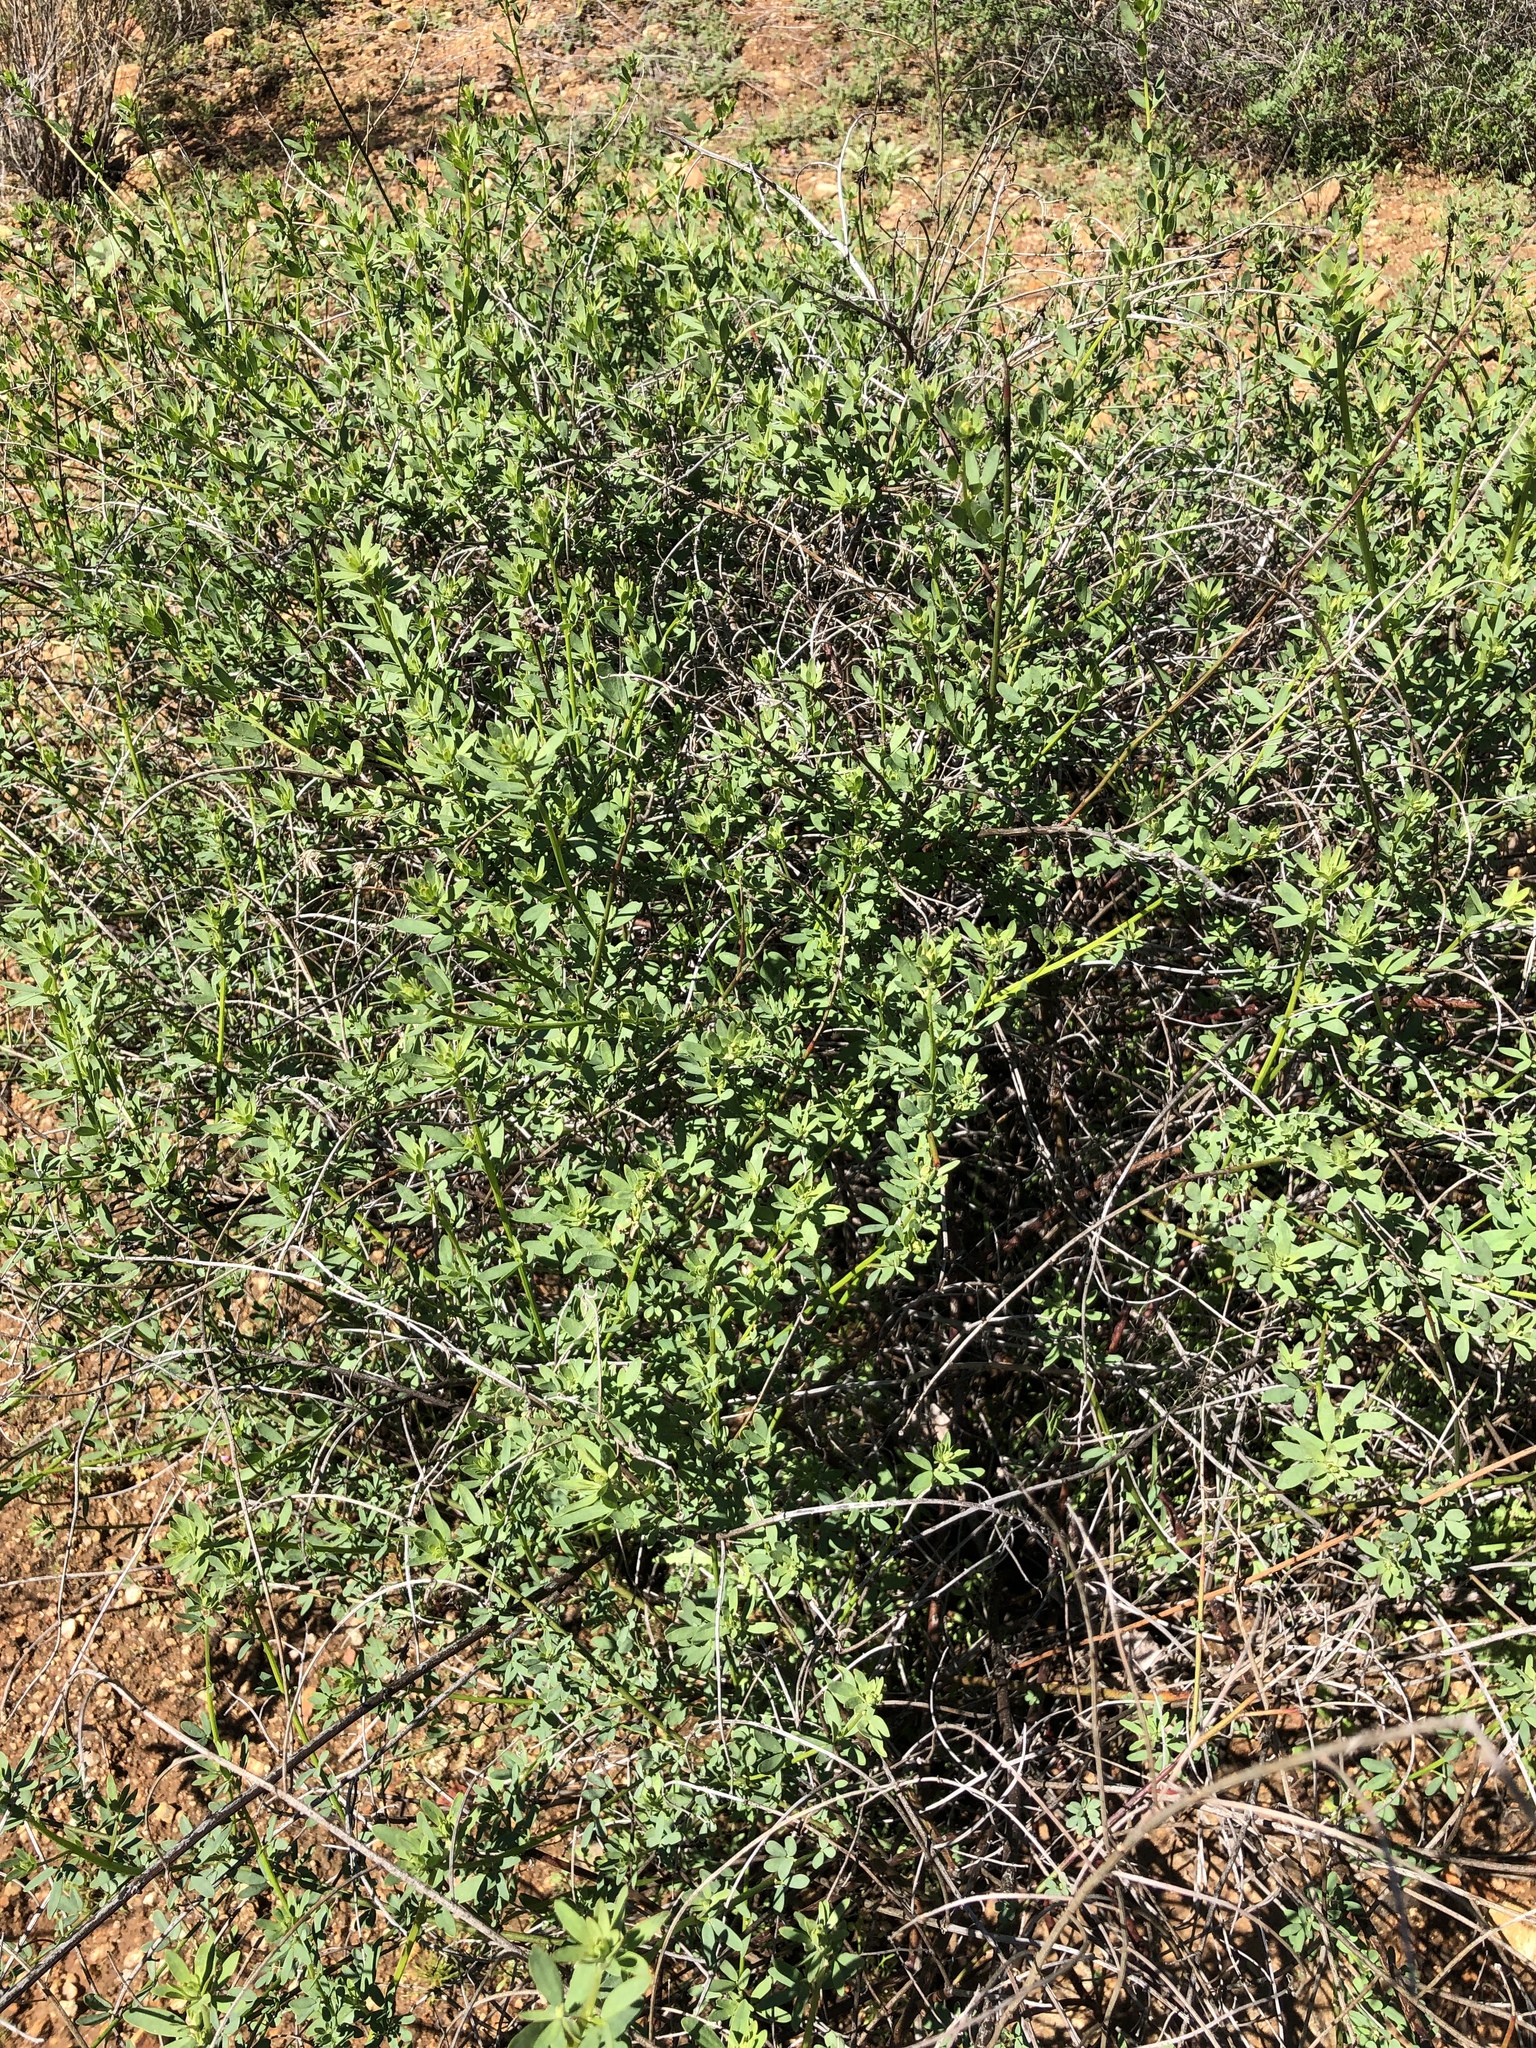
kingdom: Plantae
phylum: Tracheophyta
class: Magnoliopsida
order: Fabales
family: Fabaceae
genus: Acmispon
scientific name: Acmispon glaber
